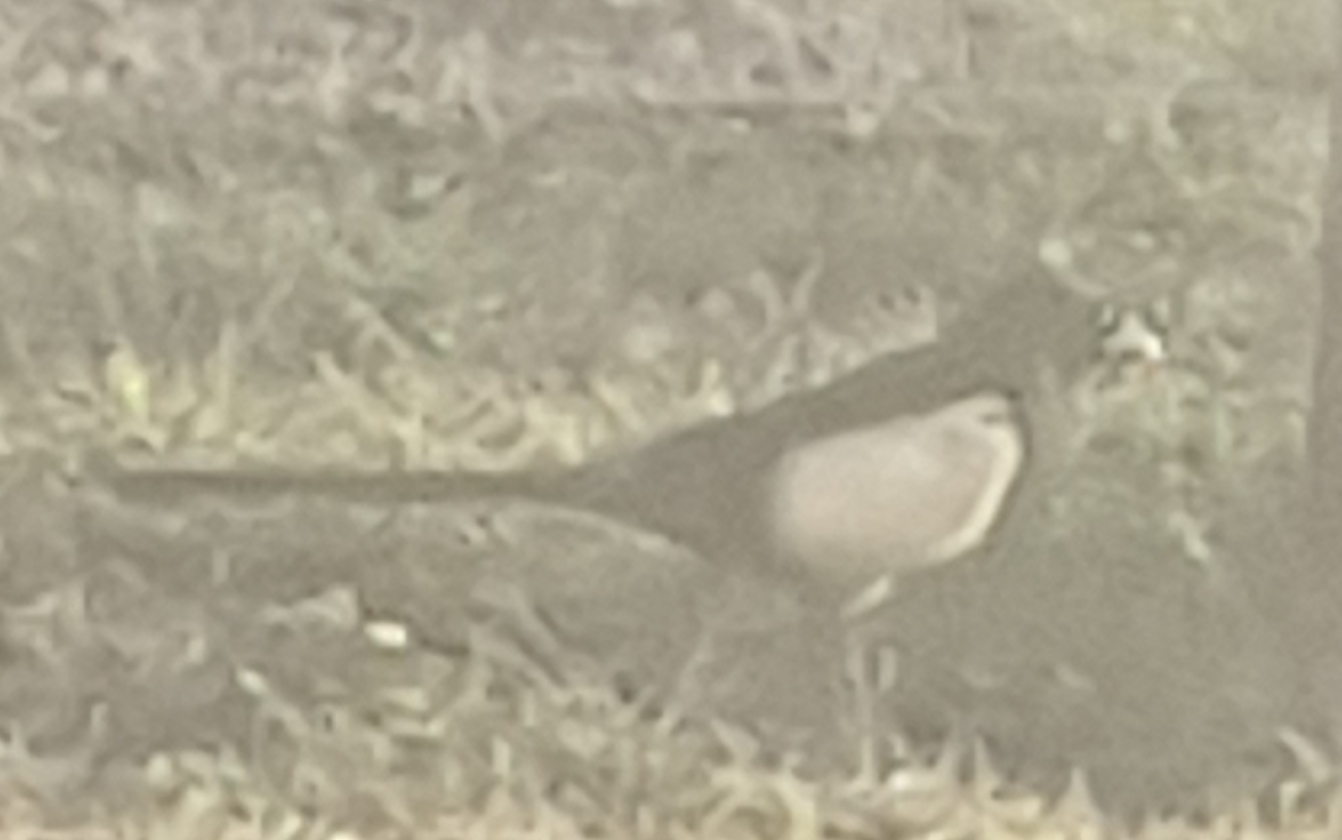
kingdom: Animalia
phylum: Chordata
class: Aves
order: Passeriformes
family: Corvidae
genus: Pica
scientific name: Pica pica
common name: Eurasian magpie
